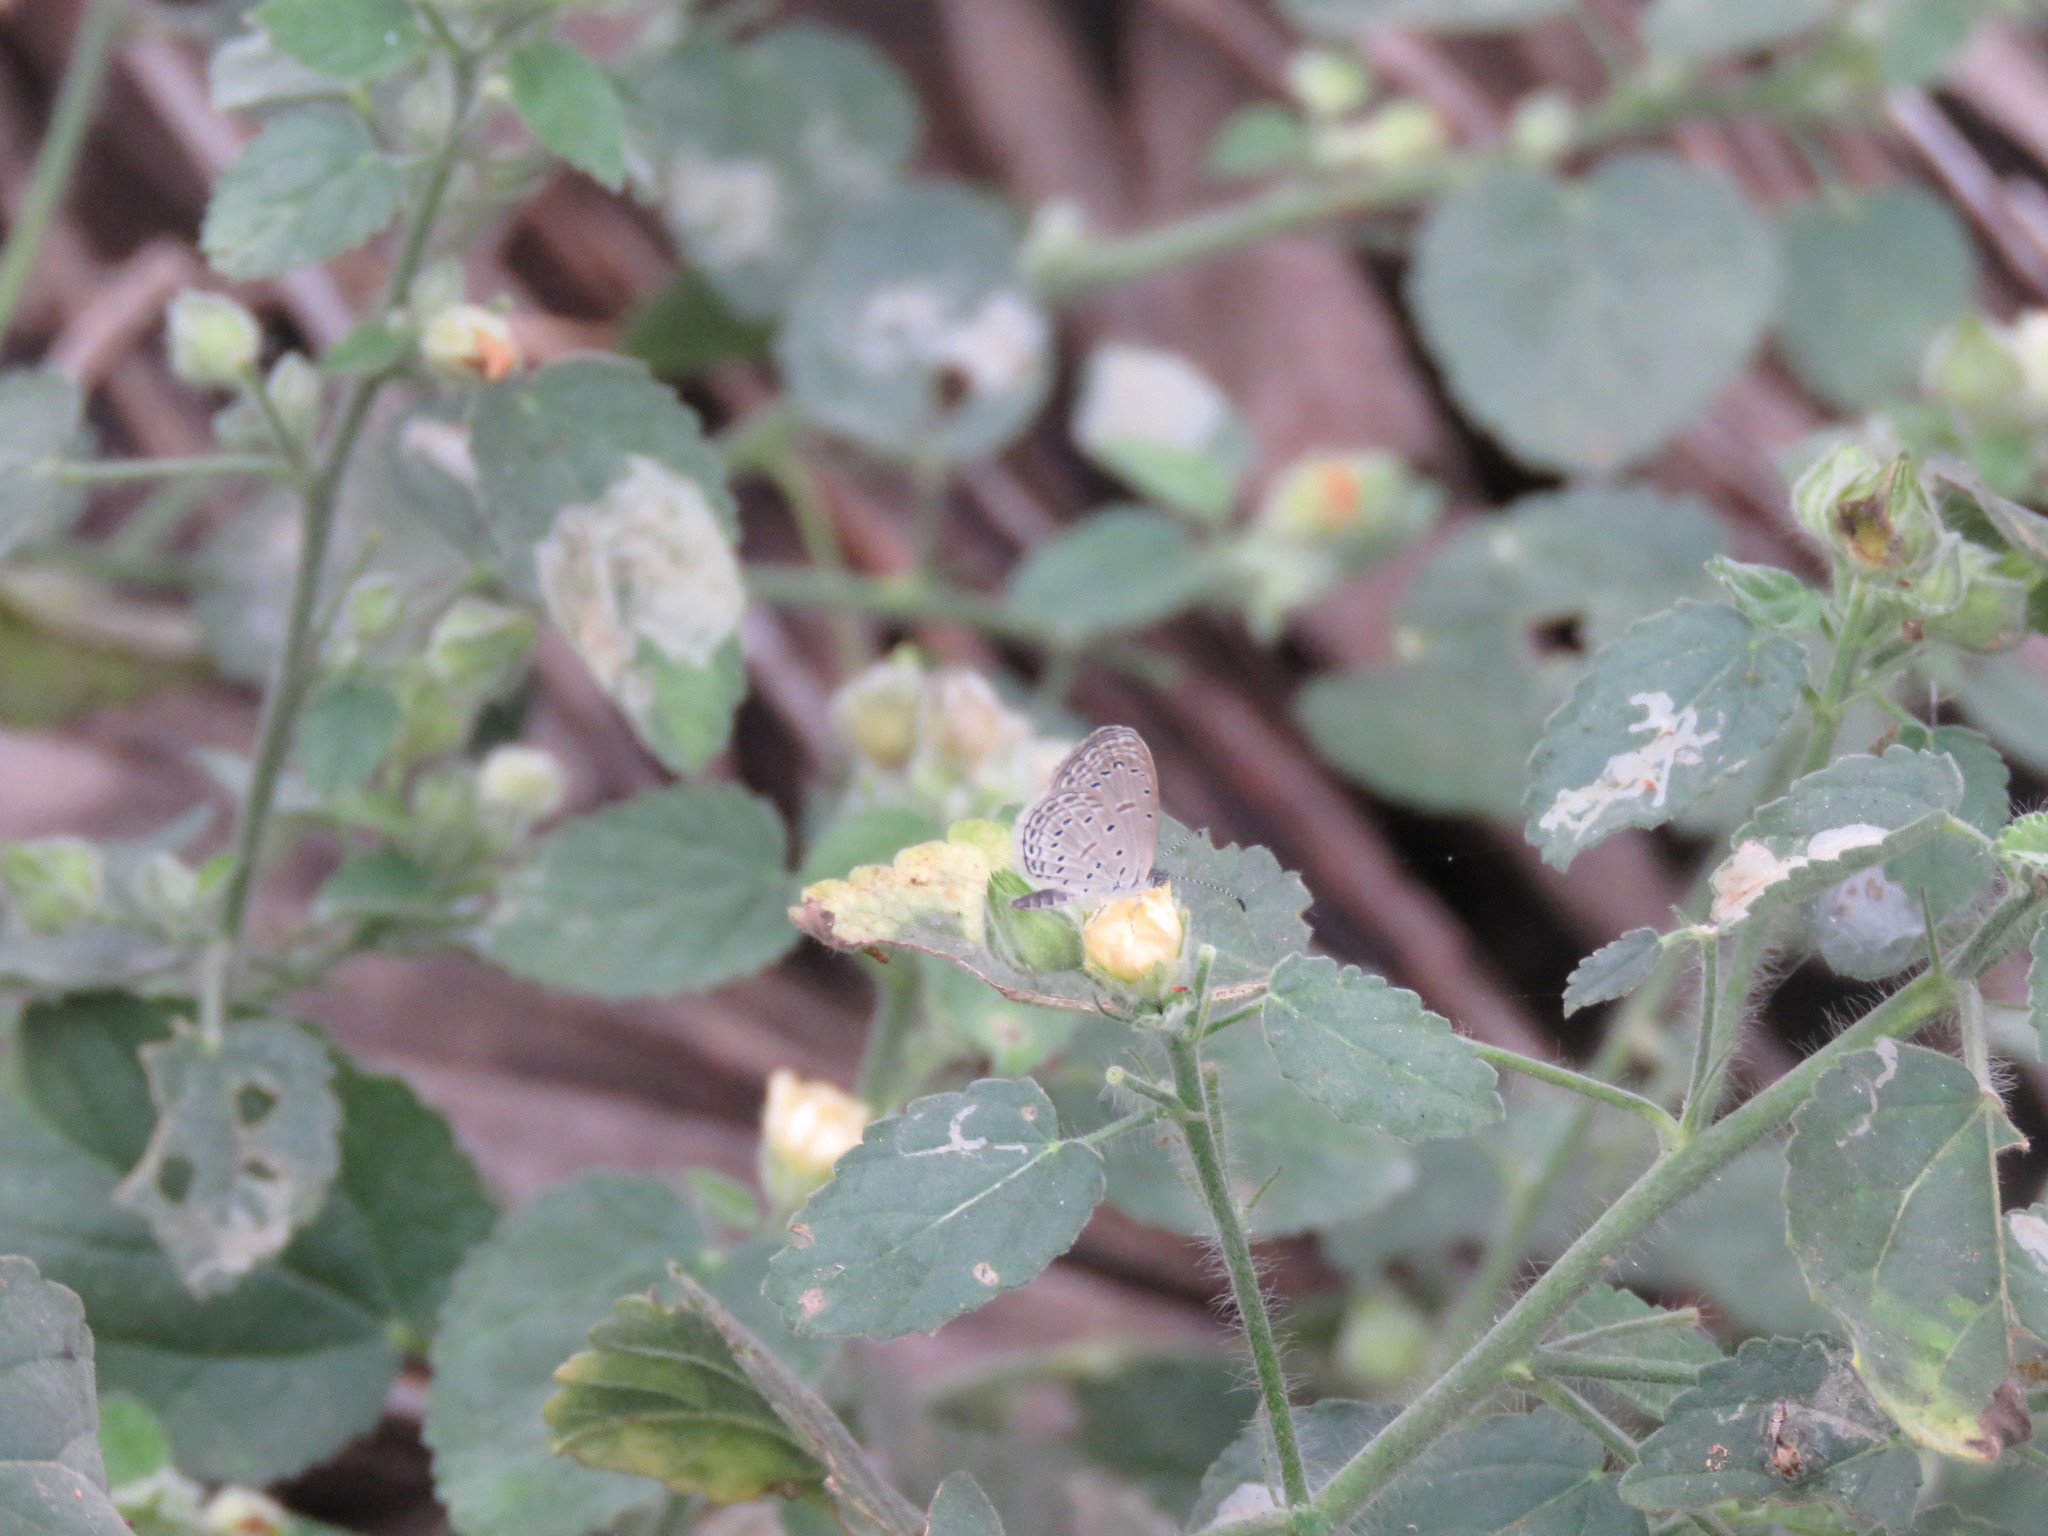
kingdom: Animalia
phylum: Arthropoda
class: Insecta
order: Lepidoptera
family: Lycaenidae
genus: Zizula
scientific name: Zizula hylax
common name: Gaika blue
